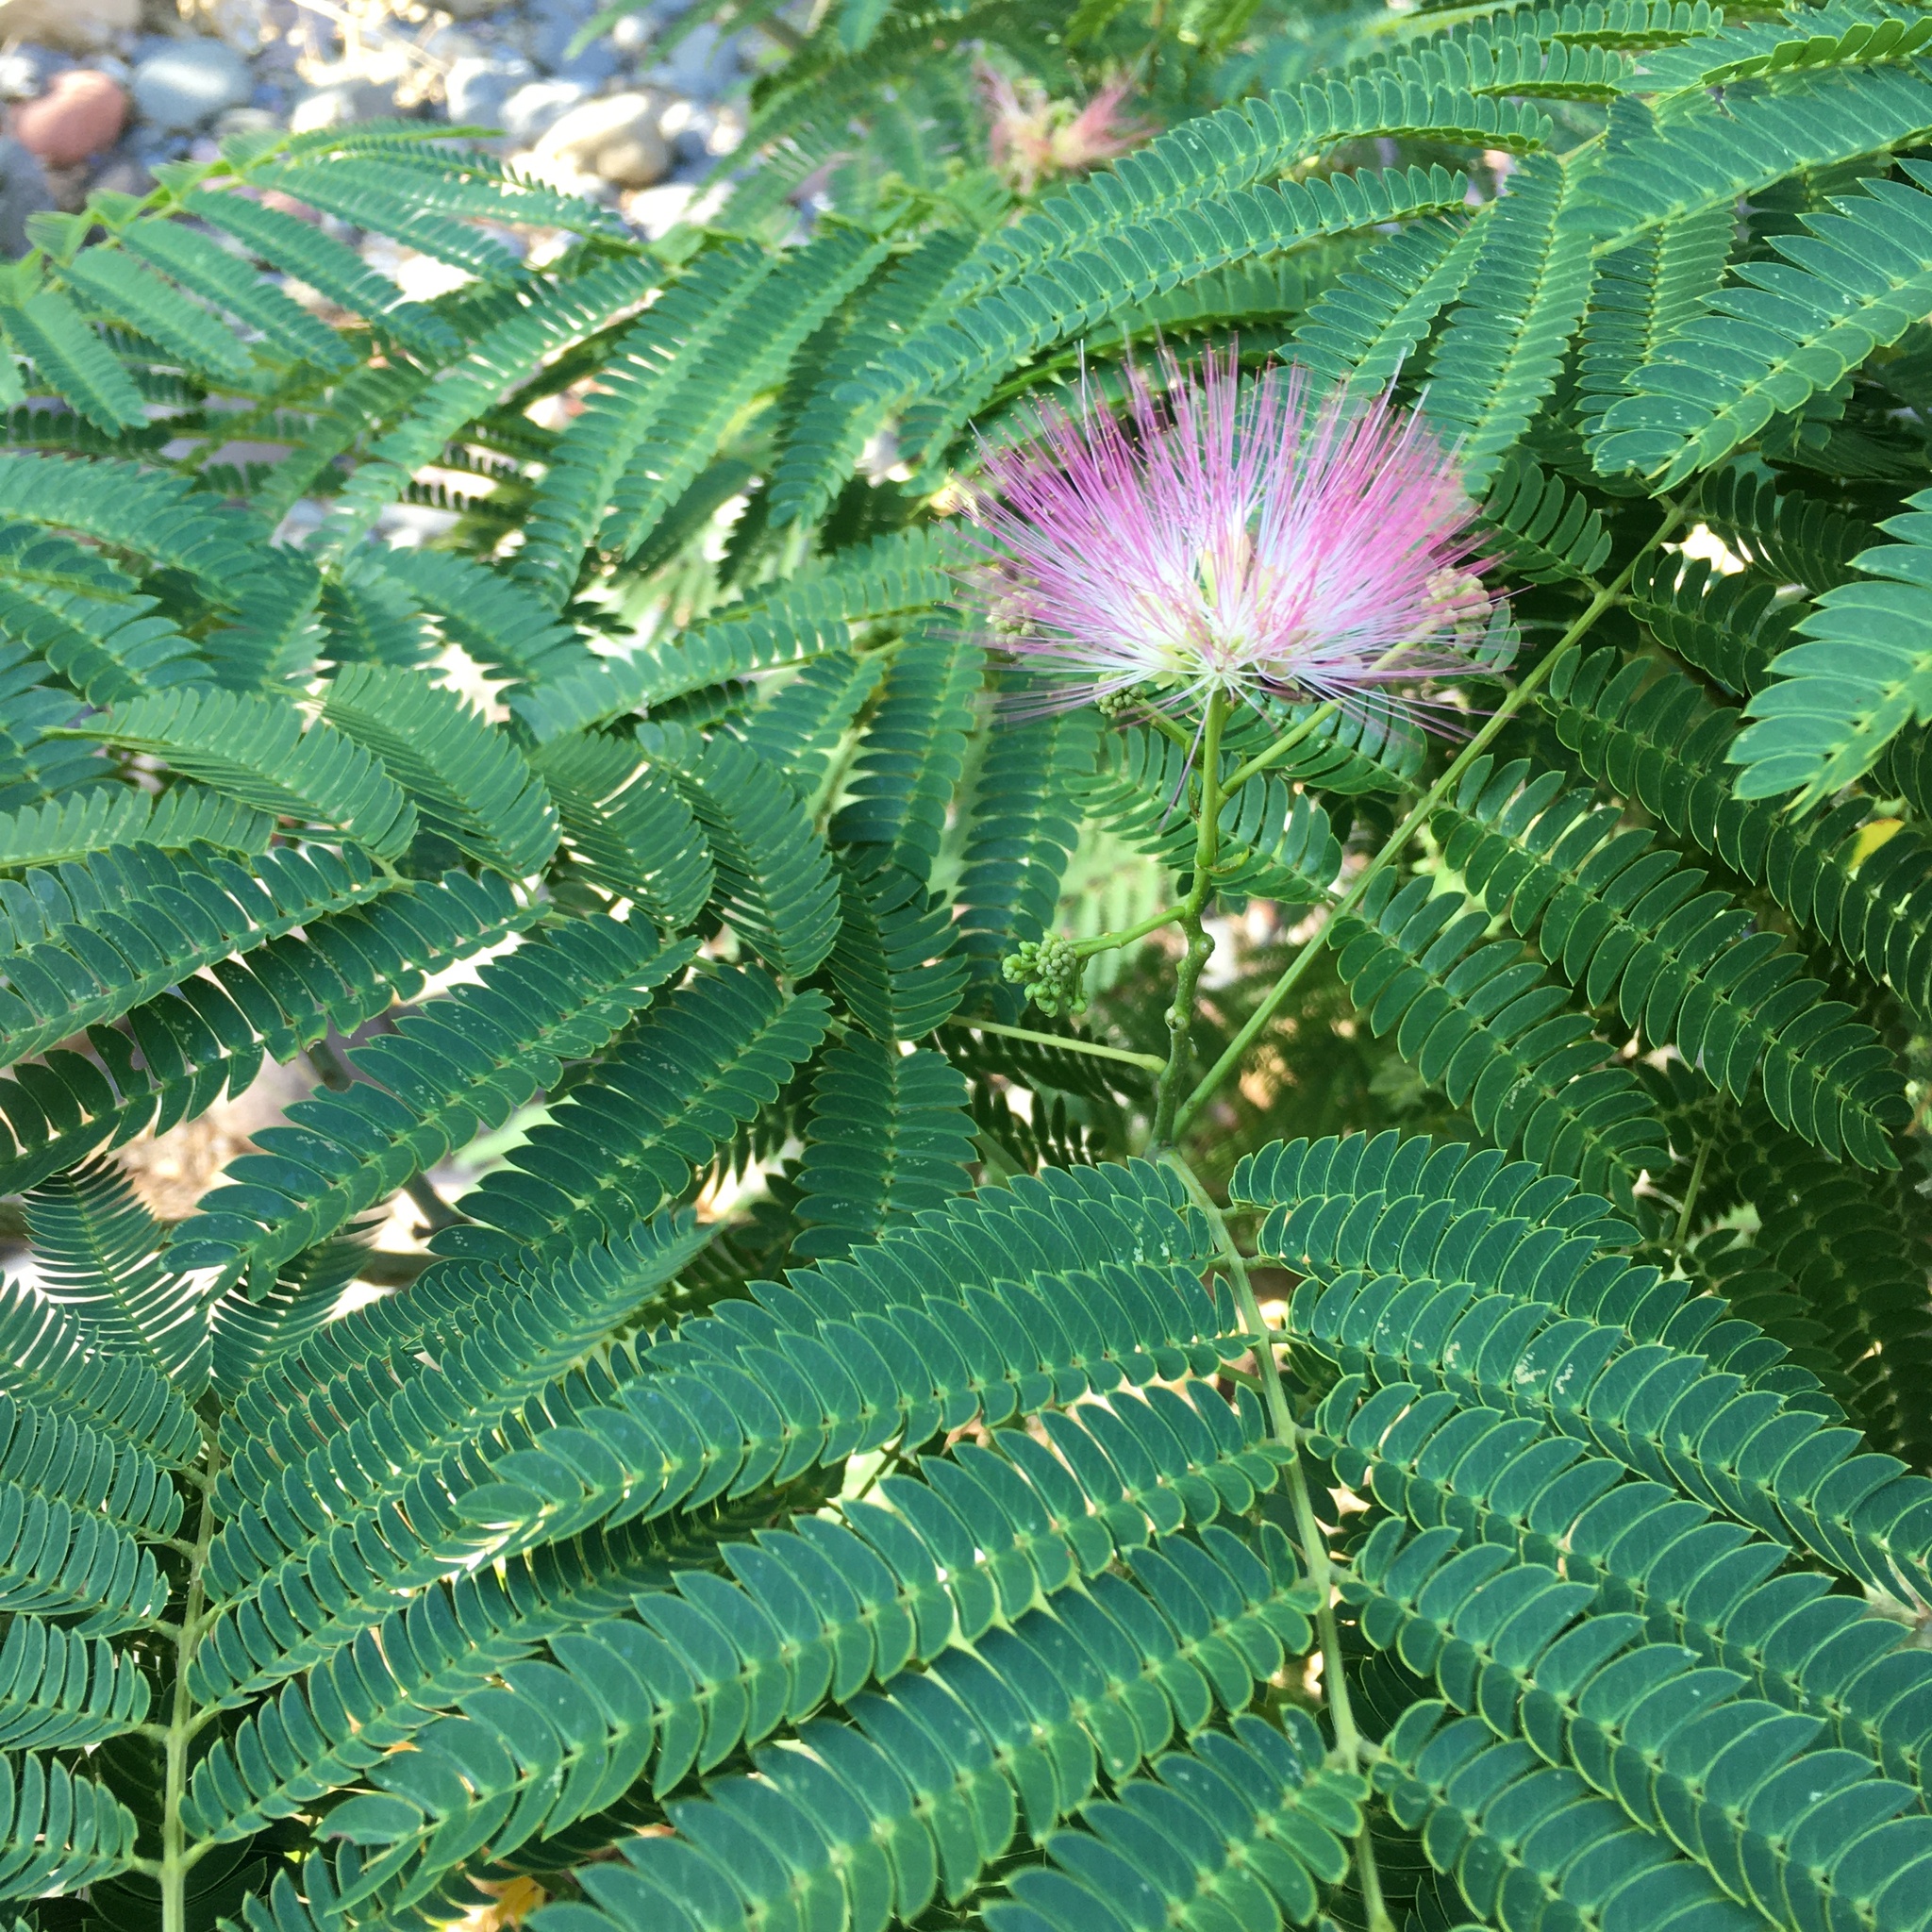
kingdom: Plantae
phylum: Tracheophyta
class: Magnoliopsida
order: Fabales
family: Fabaceae
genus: Albizia
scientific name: Albizia julibrissin
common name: Silktree
